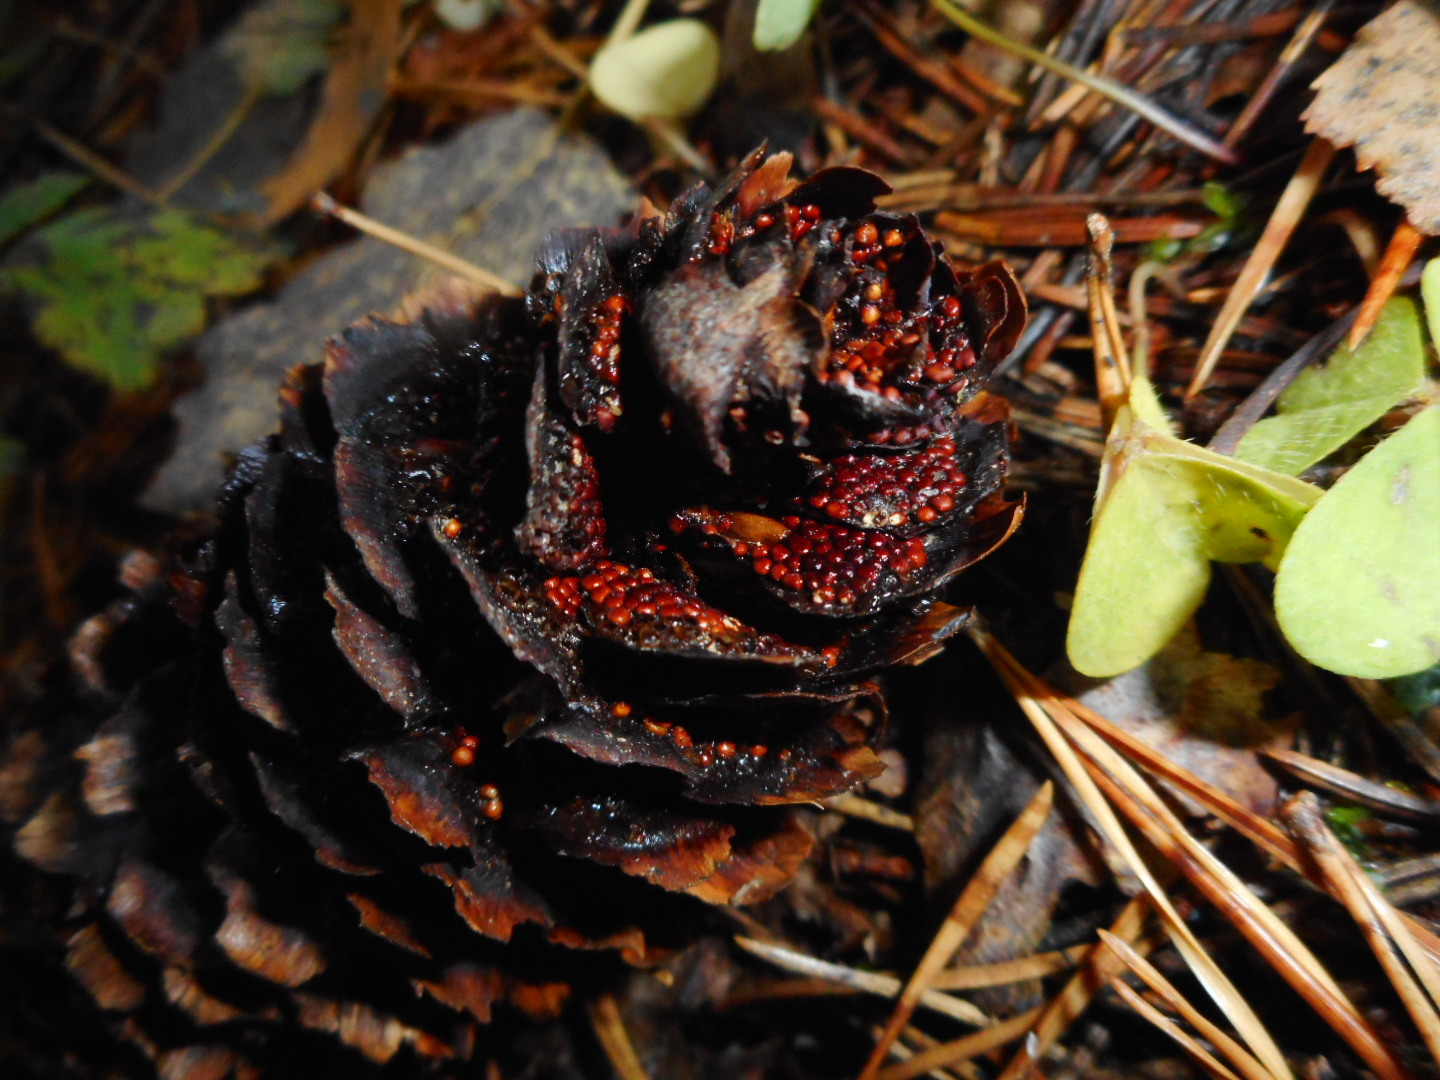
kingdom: Fungi
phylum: Basidiomycota
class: Pucciniomycetes
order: Pucciniales
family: Pucciniastraceae
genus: Thekopsora
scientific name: Thekopsora areolata
